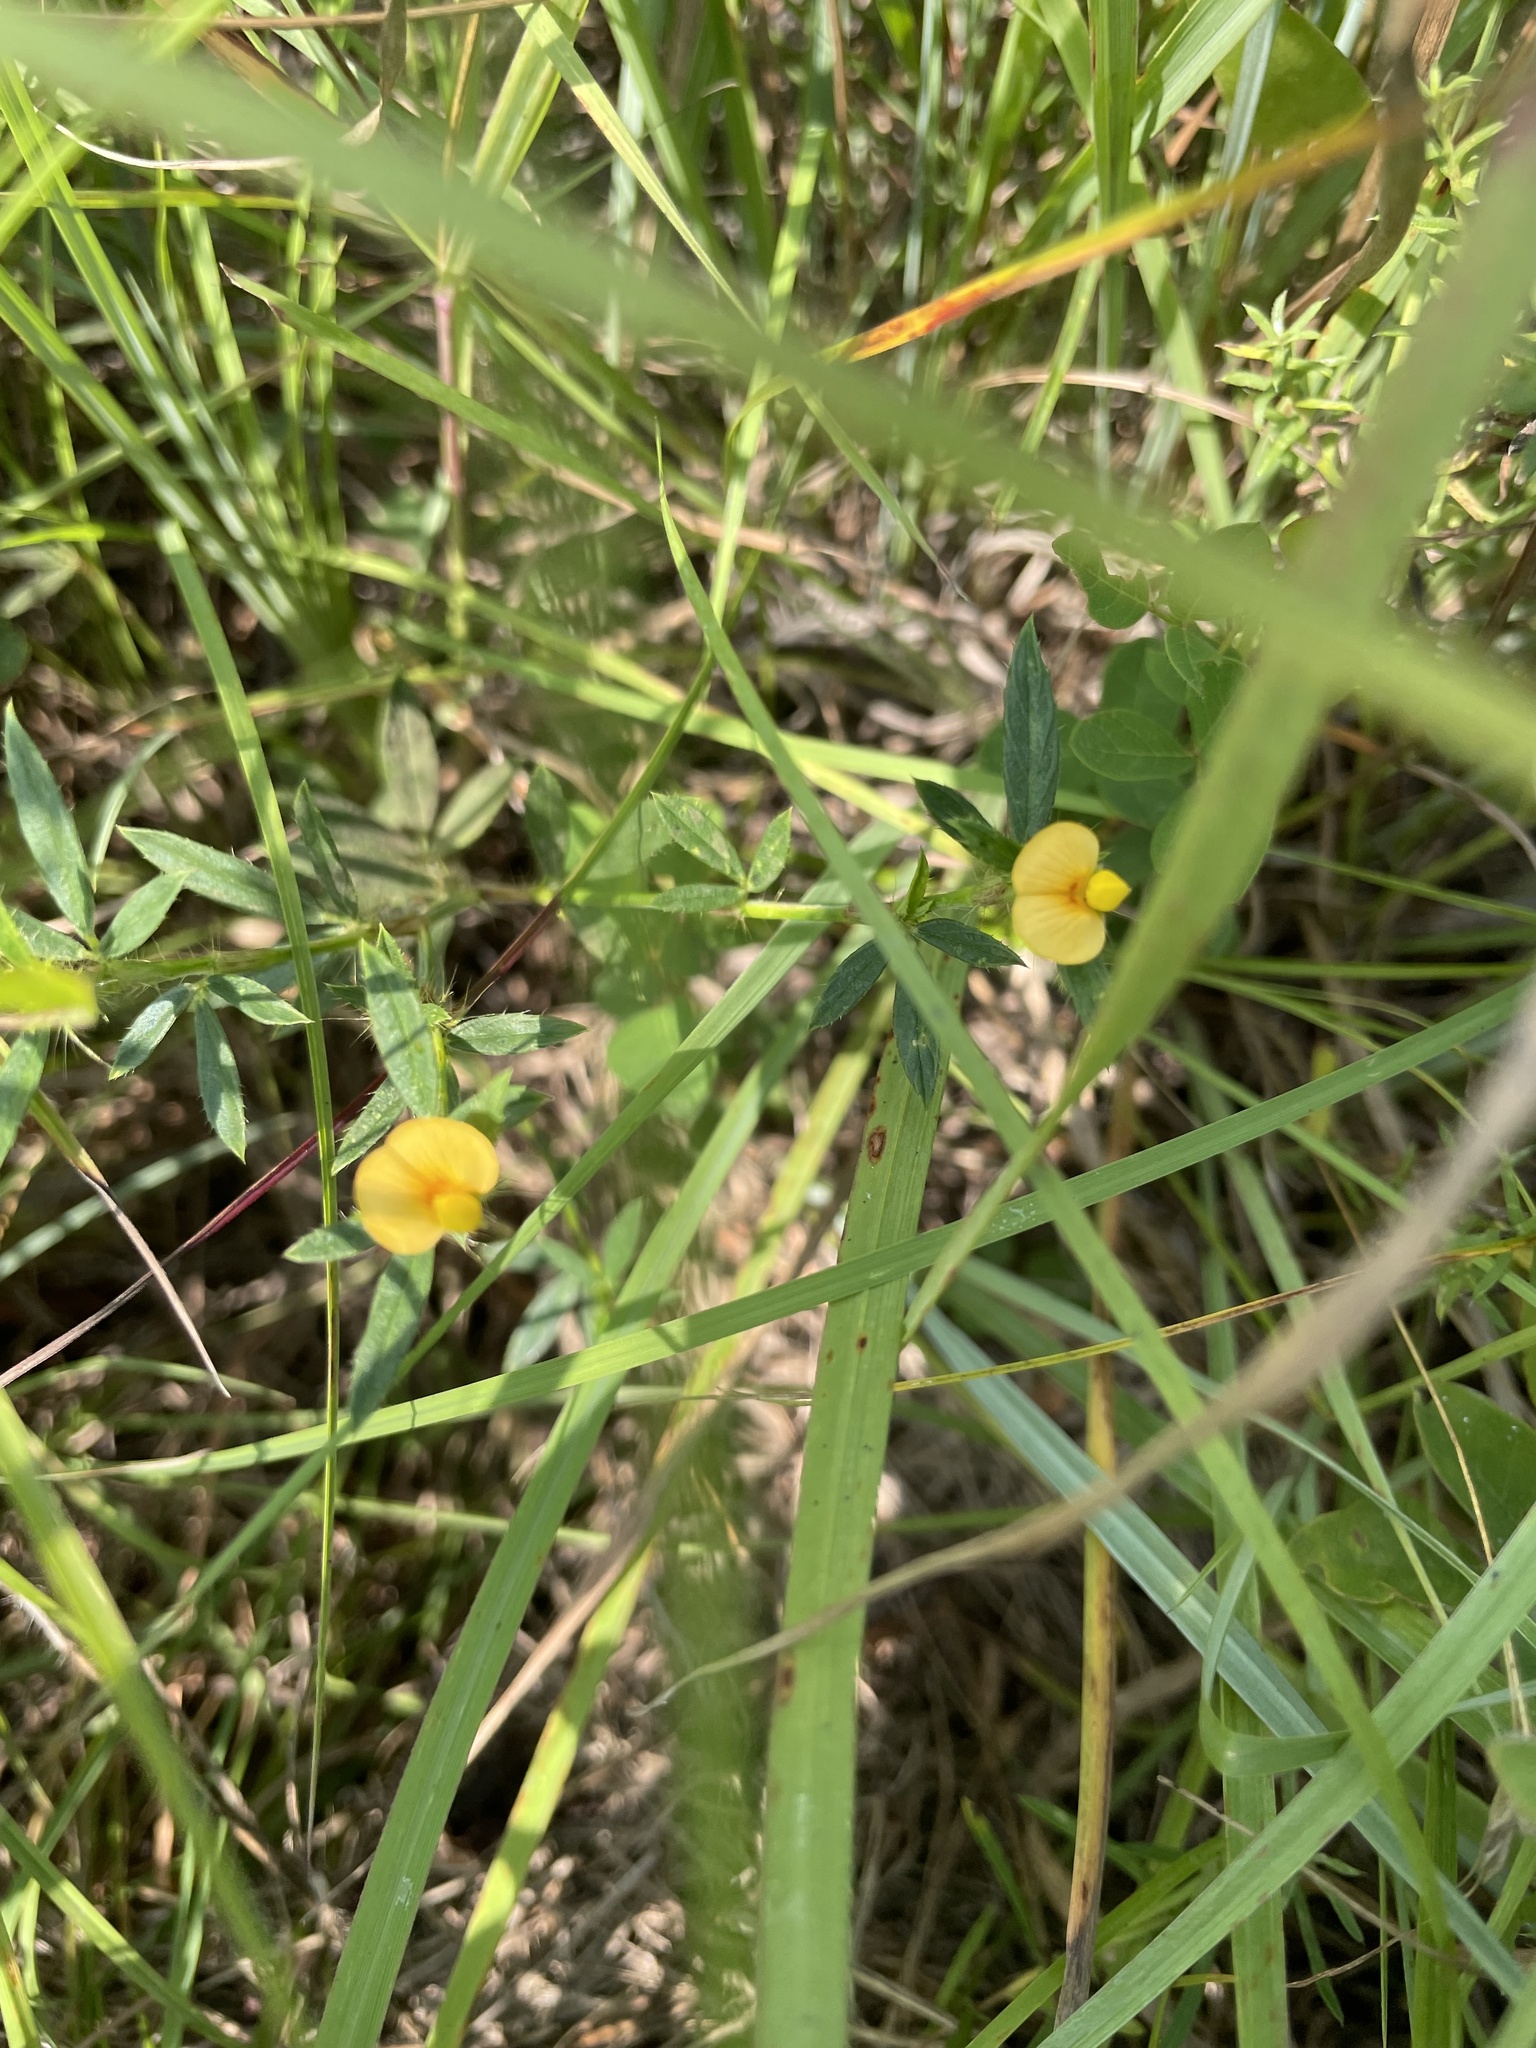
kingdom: Plantae
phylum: Tracheophyta
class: Magnoliopsida
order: Fabales
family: Fabaceae
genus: Stylosanthes
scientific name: Stylosanthes biflora
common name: Two-flower pencil-flower
